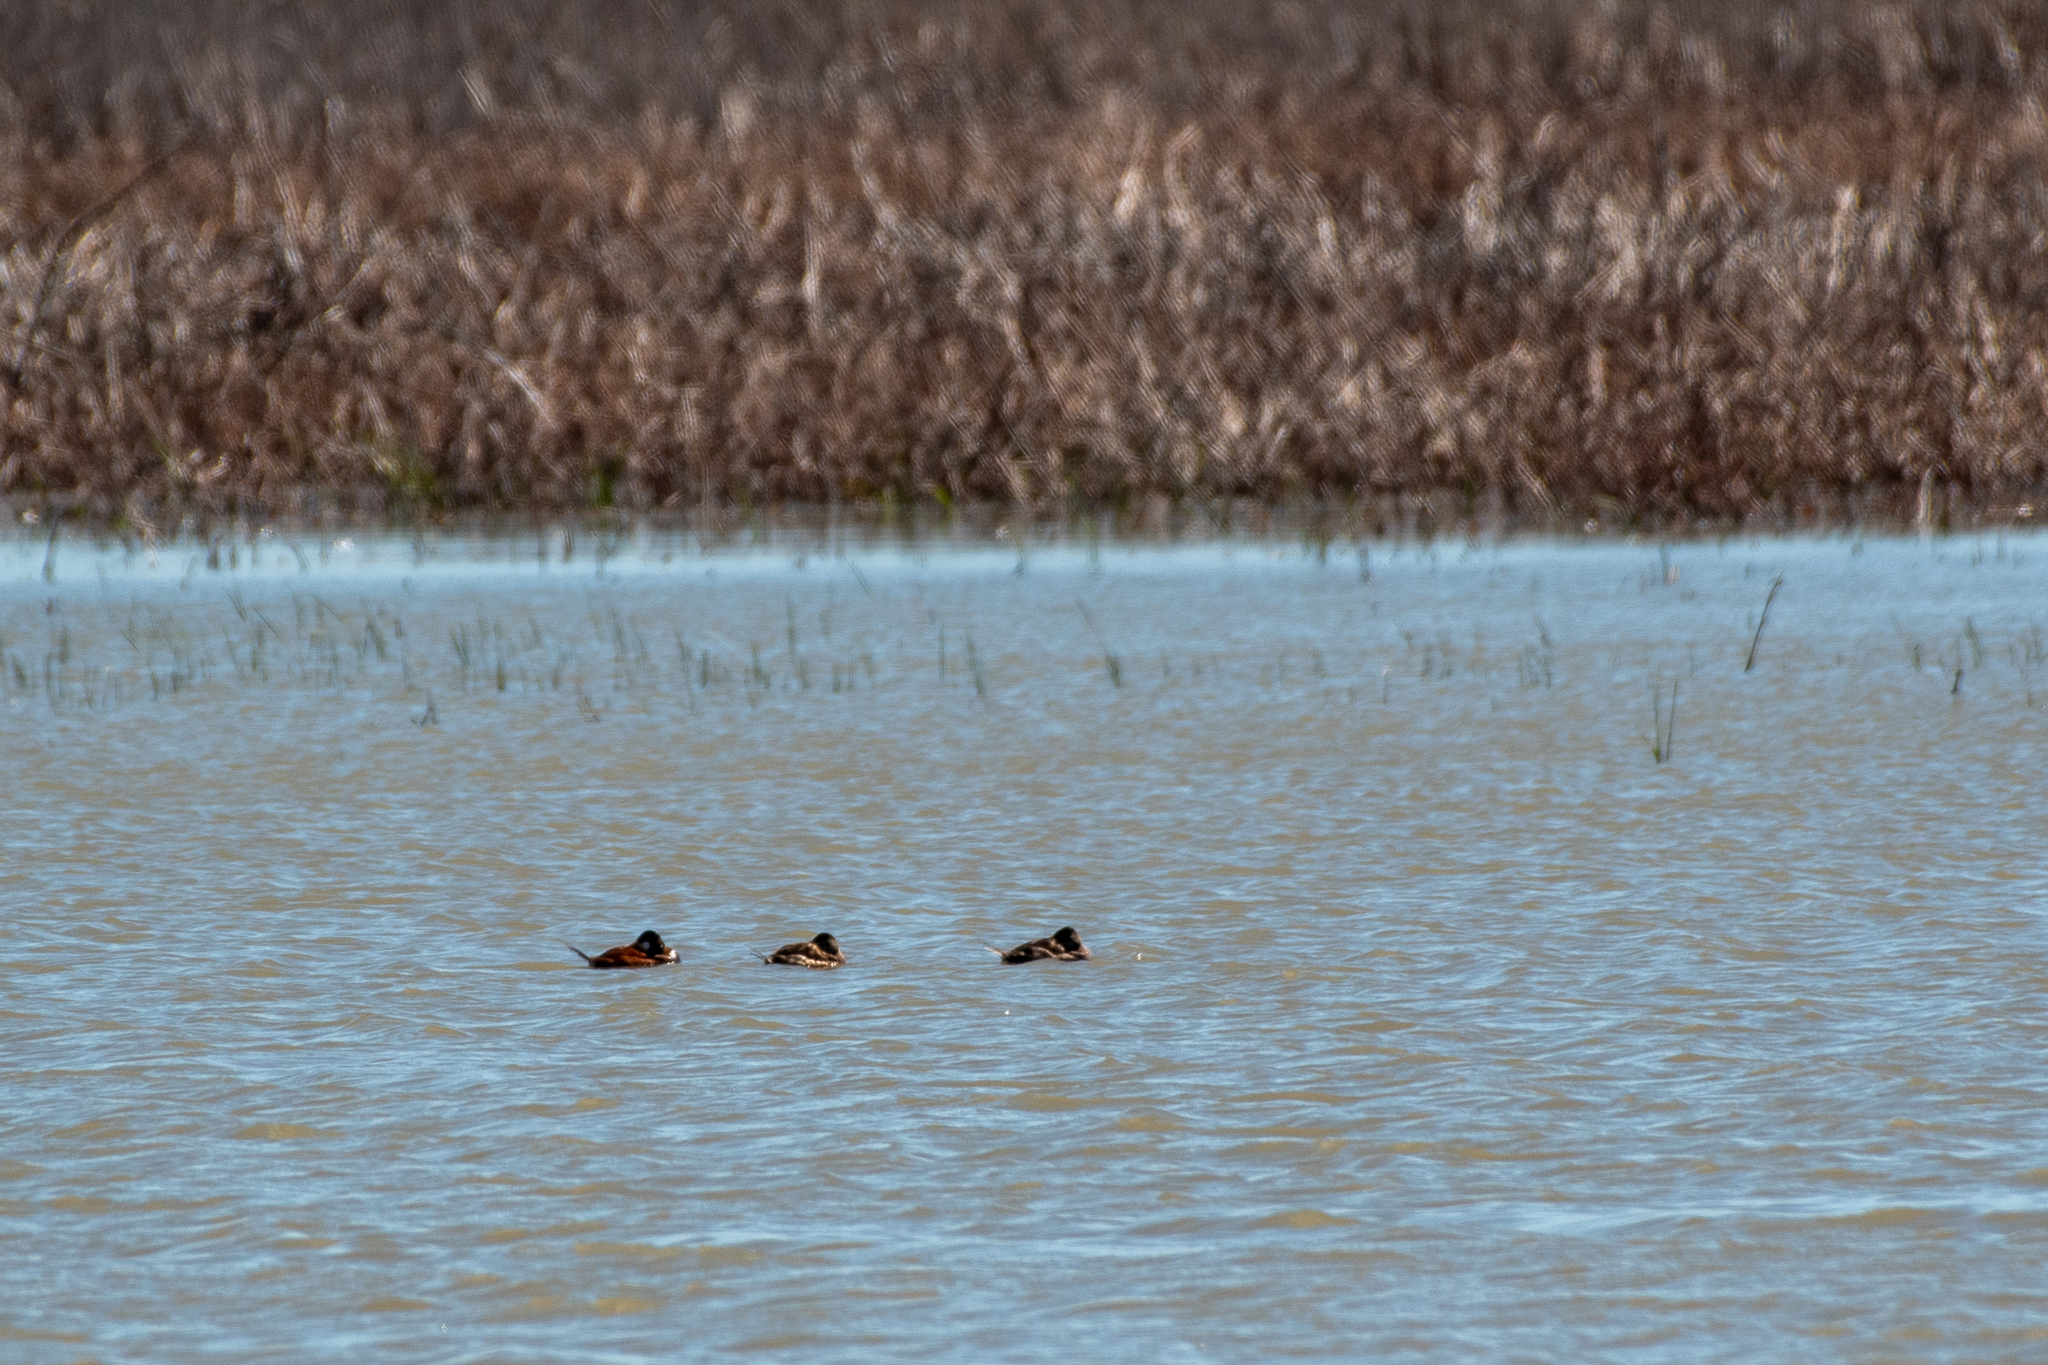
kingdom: Animalia
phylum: Chordata
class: Aves
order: Anseriformes
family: Anatidae
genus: Oxyura
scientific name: Oxyura jamaicensis
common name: Ruddy duck
